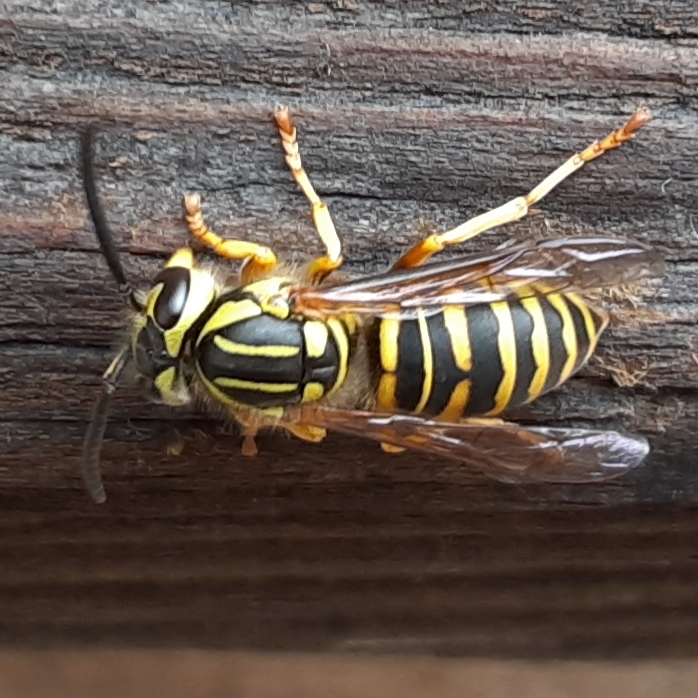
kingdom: Animalia
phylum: Arthropoda
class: Insecta
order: Hymenoptera
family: Vespidae
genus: Vespula
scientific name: Vespula squamosa
